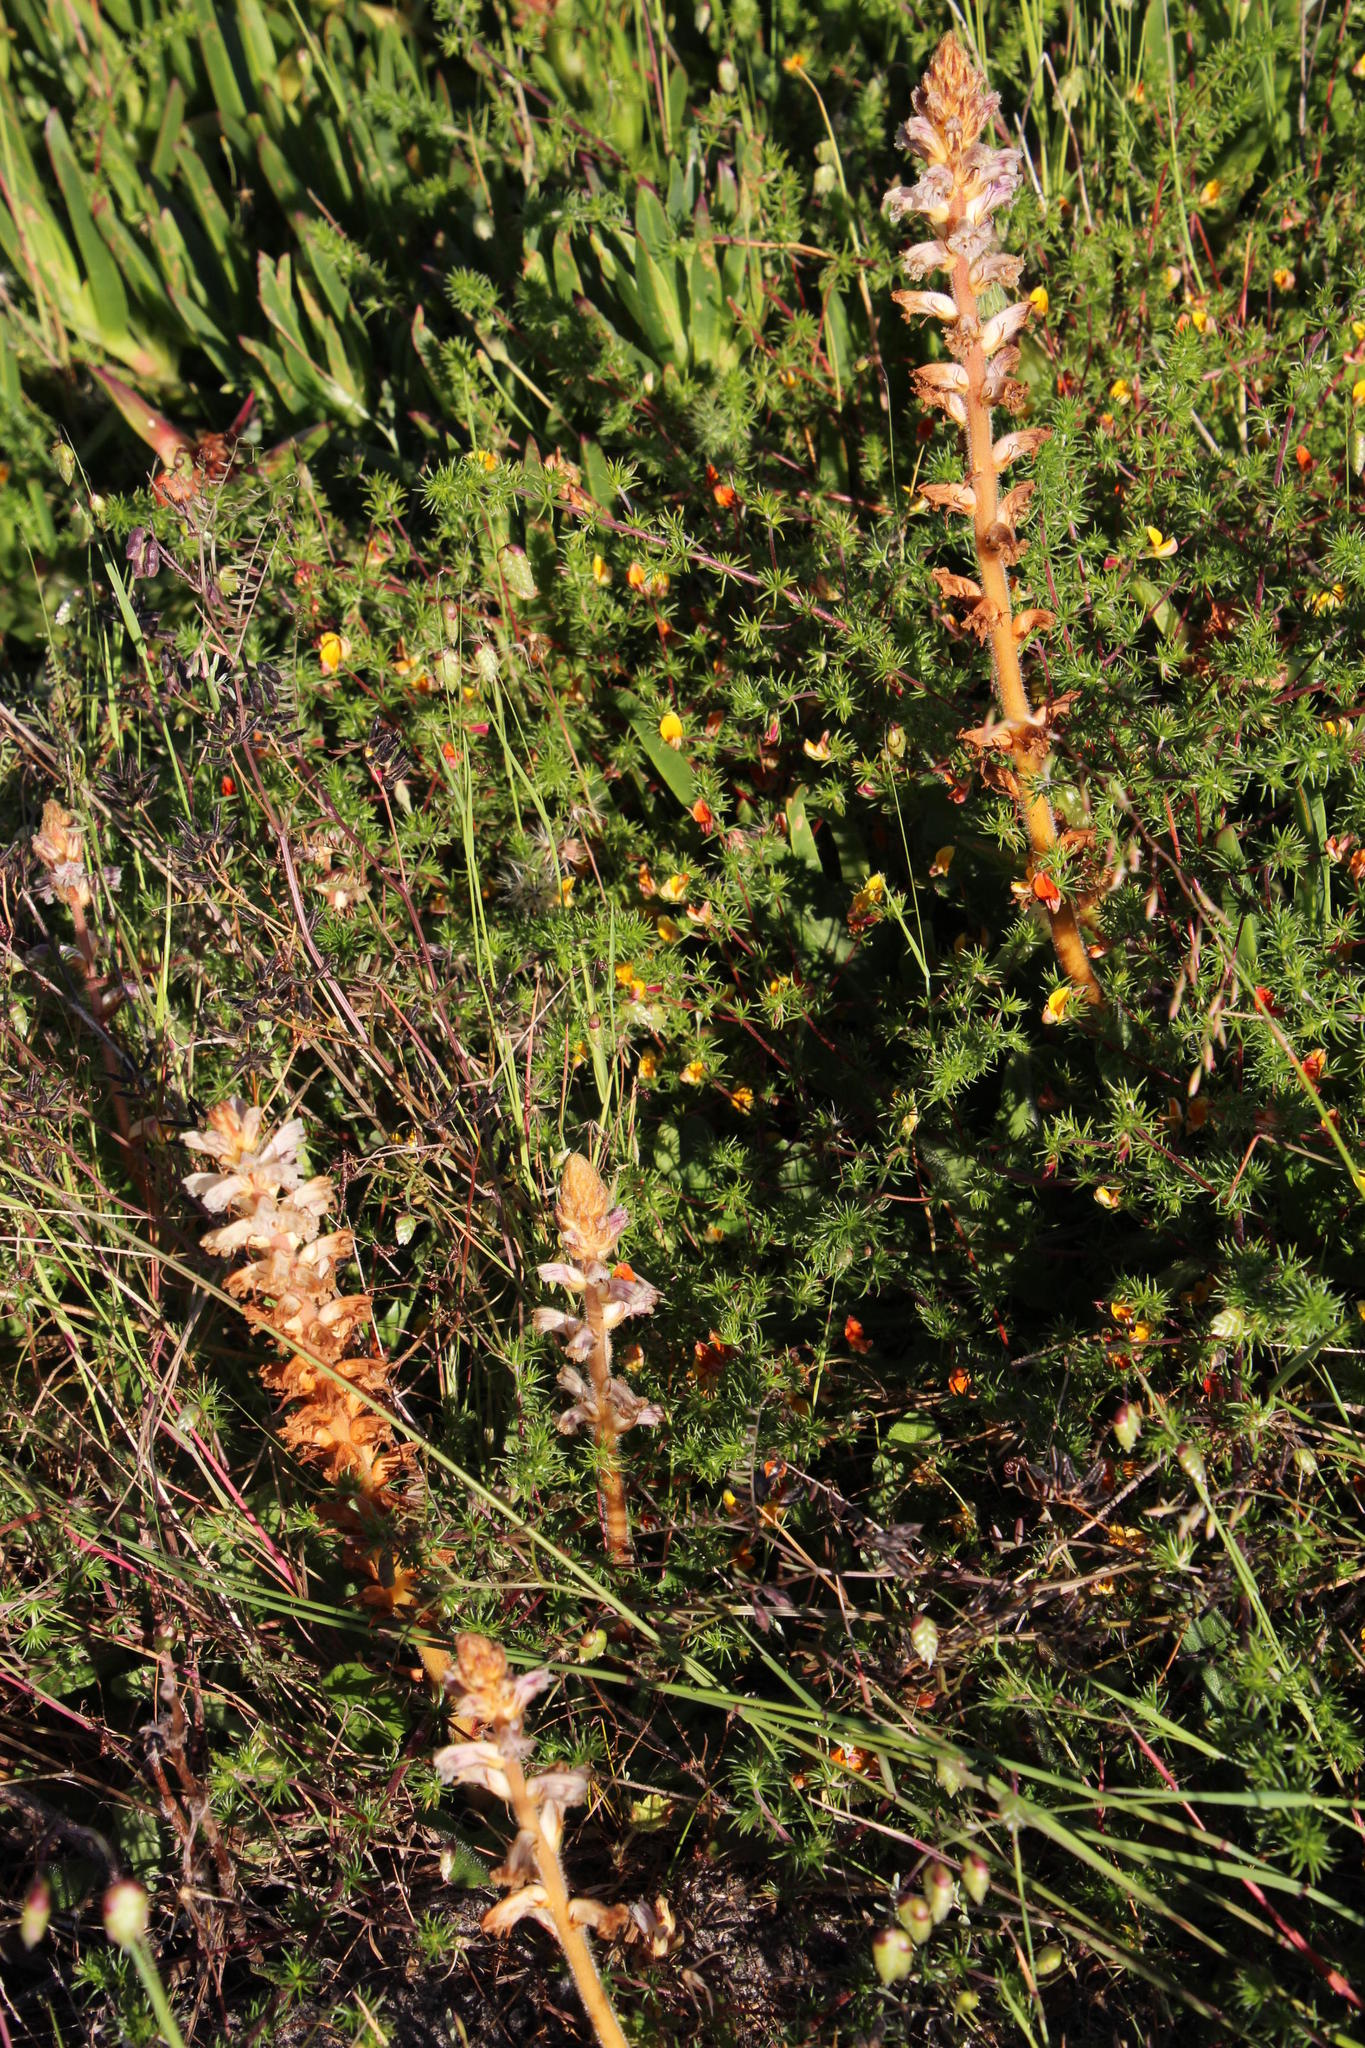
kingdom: Plantae
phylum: Tracheophyta
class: Magnoliopsida
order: Fabales
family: Fabaceae
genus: Aspalathus
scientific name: Aspalathus retroflexa
